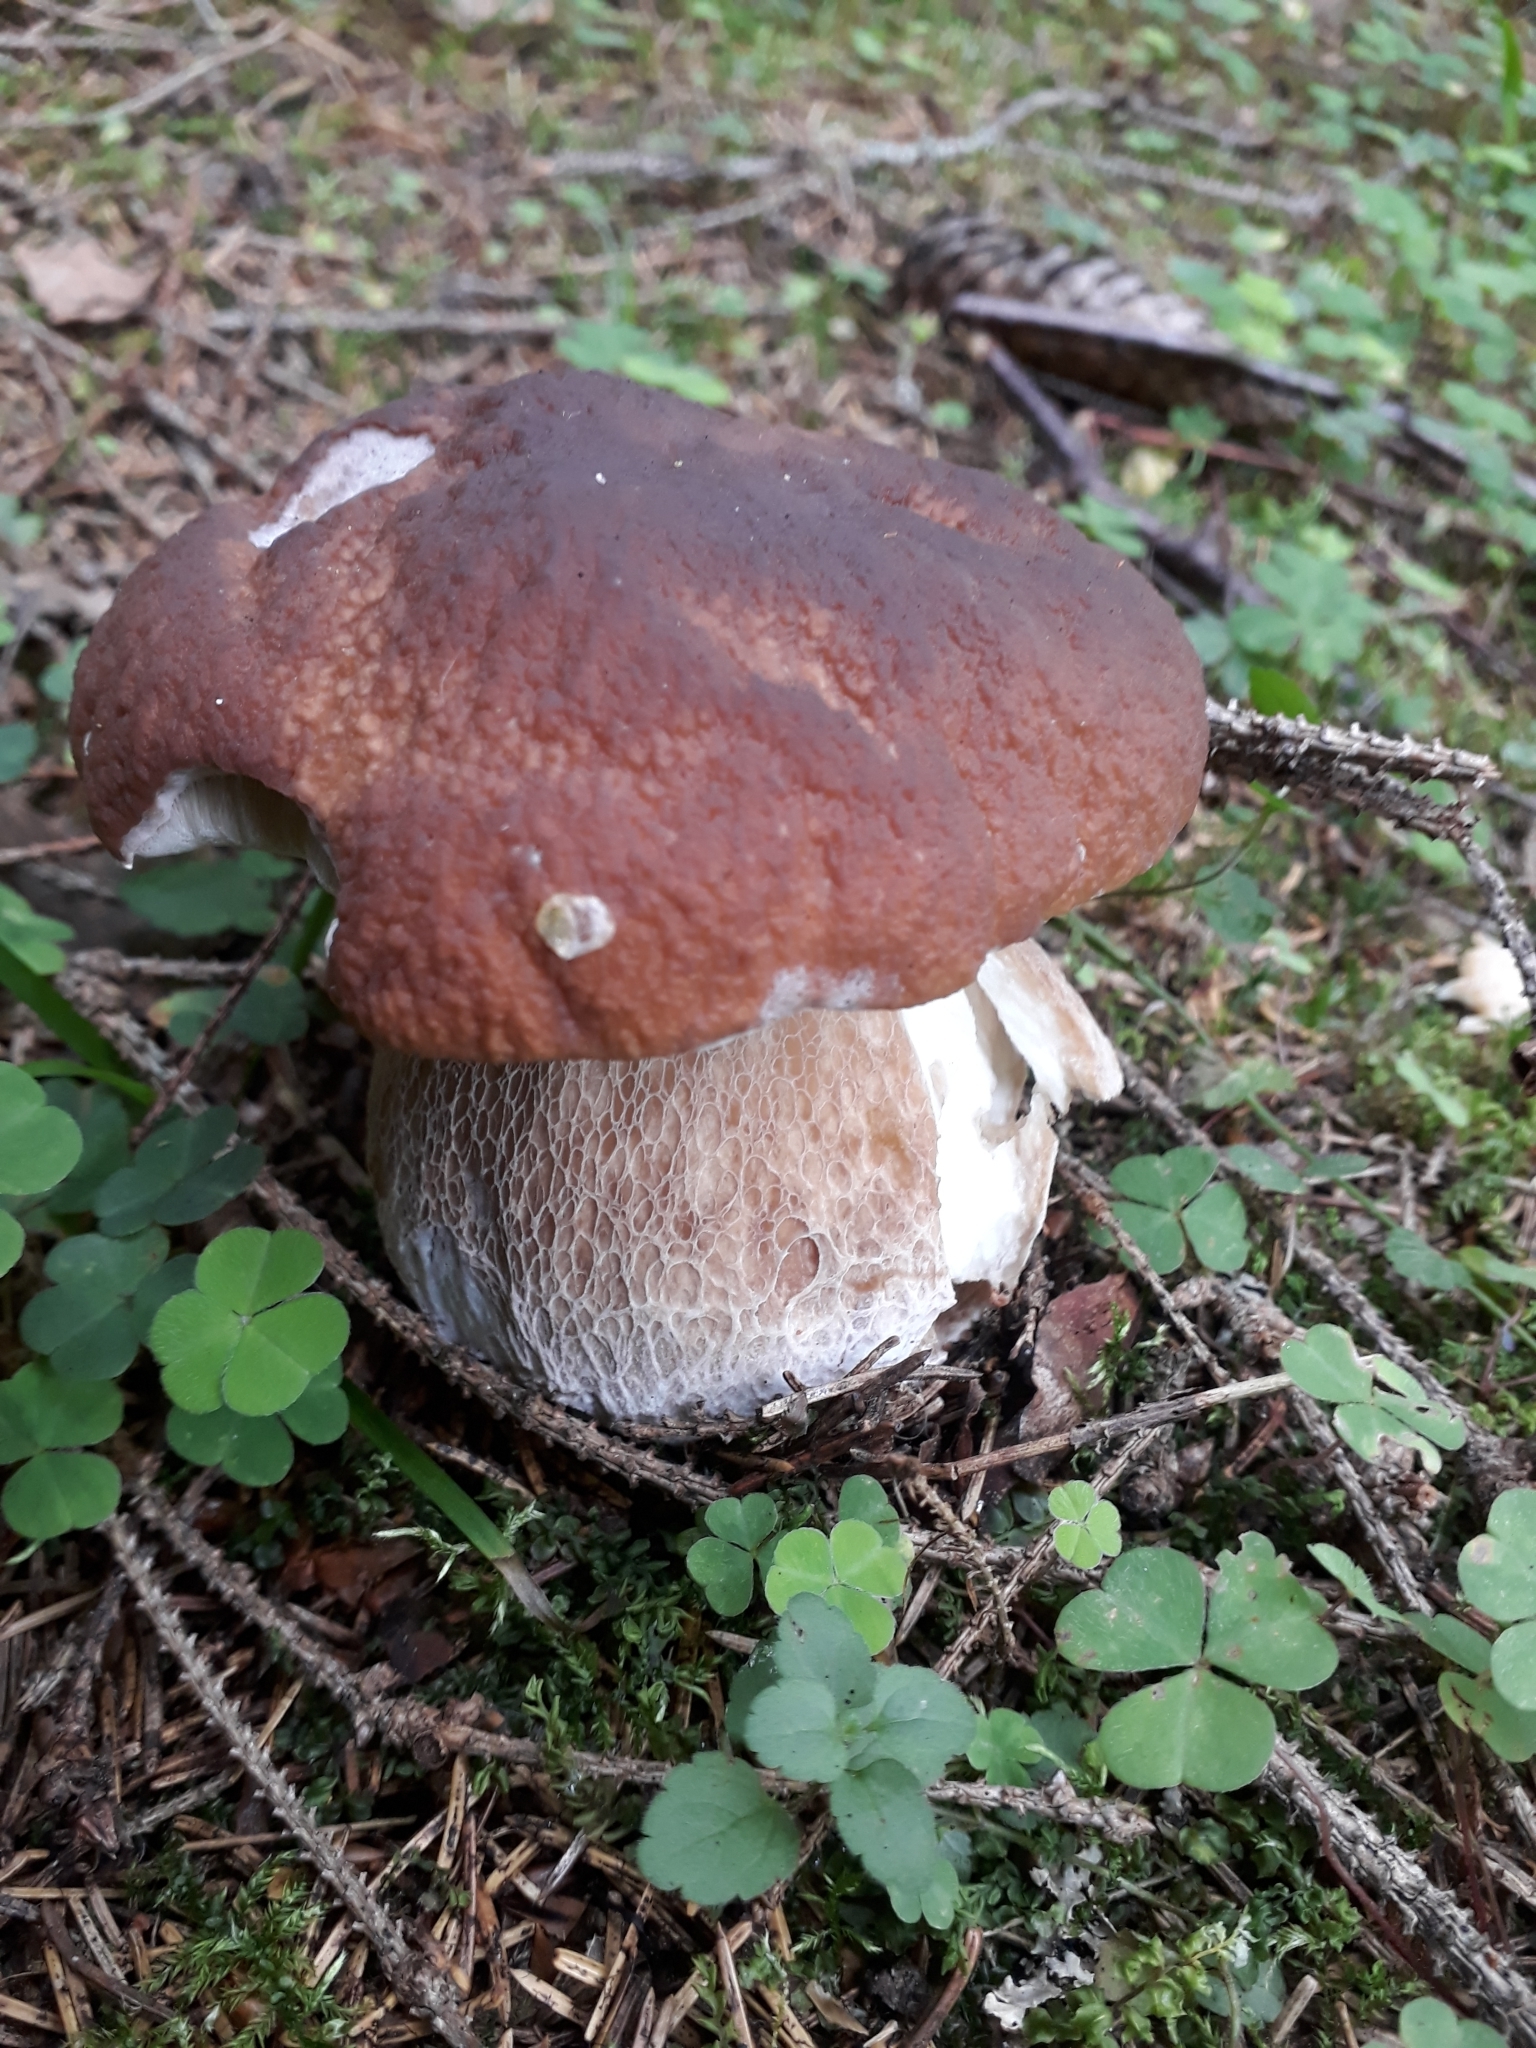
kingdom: Fungi
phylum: Basidiomycota
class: Agaricomycetes
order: Boletales
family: Boletaceae
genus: Boletus
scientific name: Boletus edulis
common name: Cep
